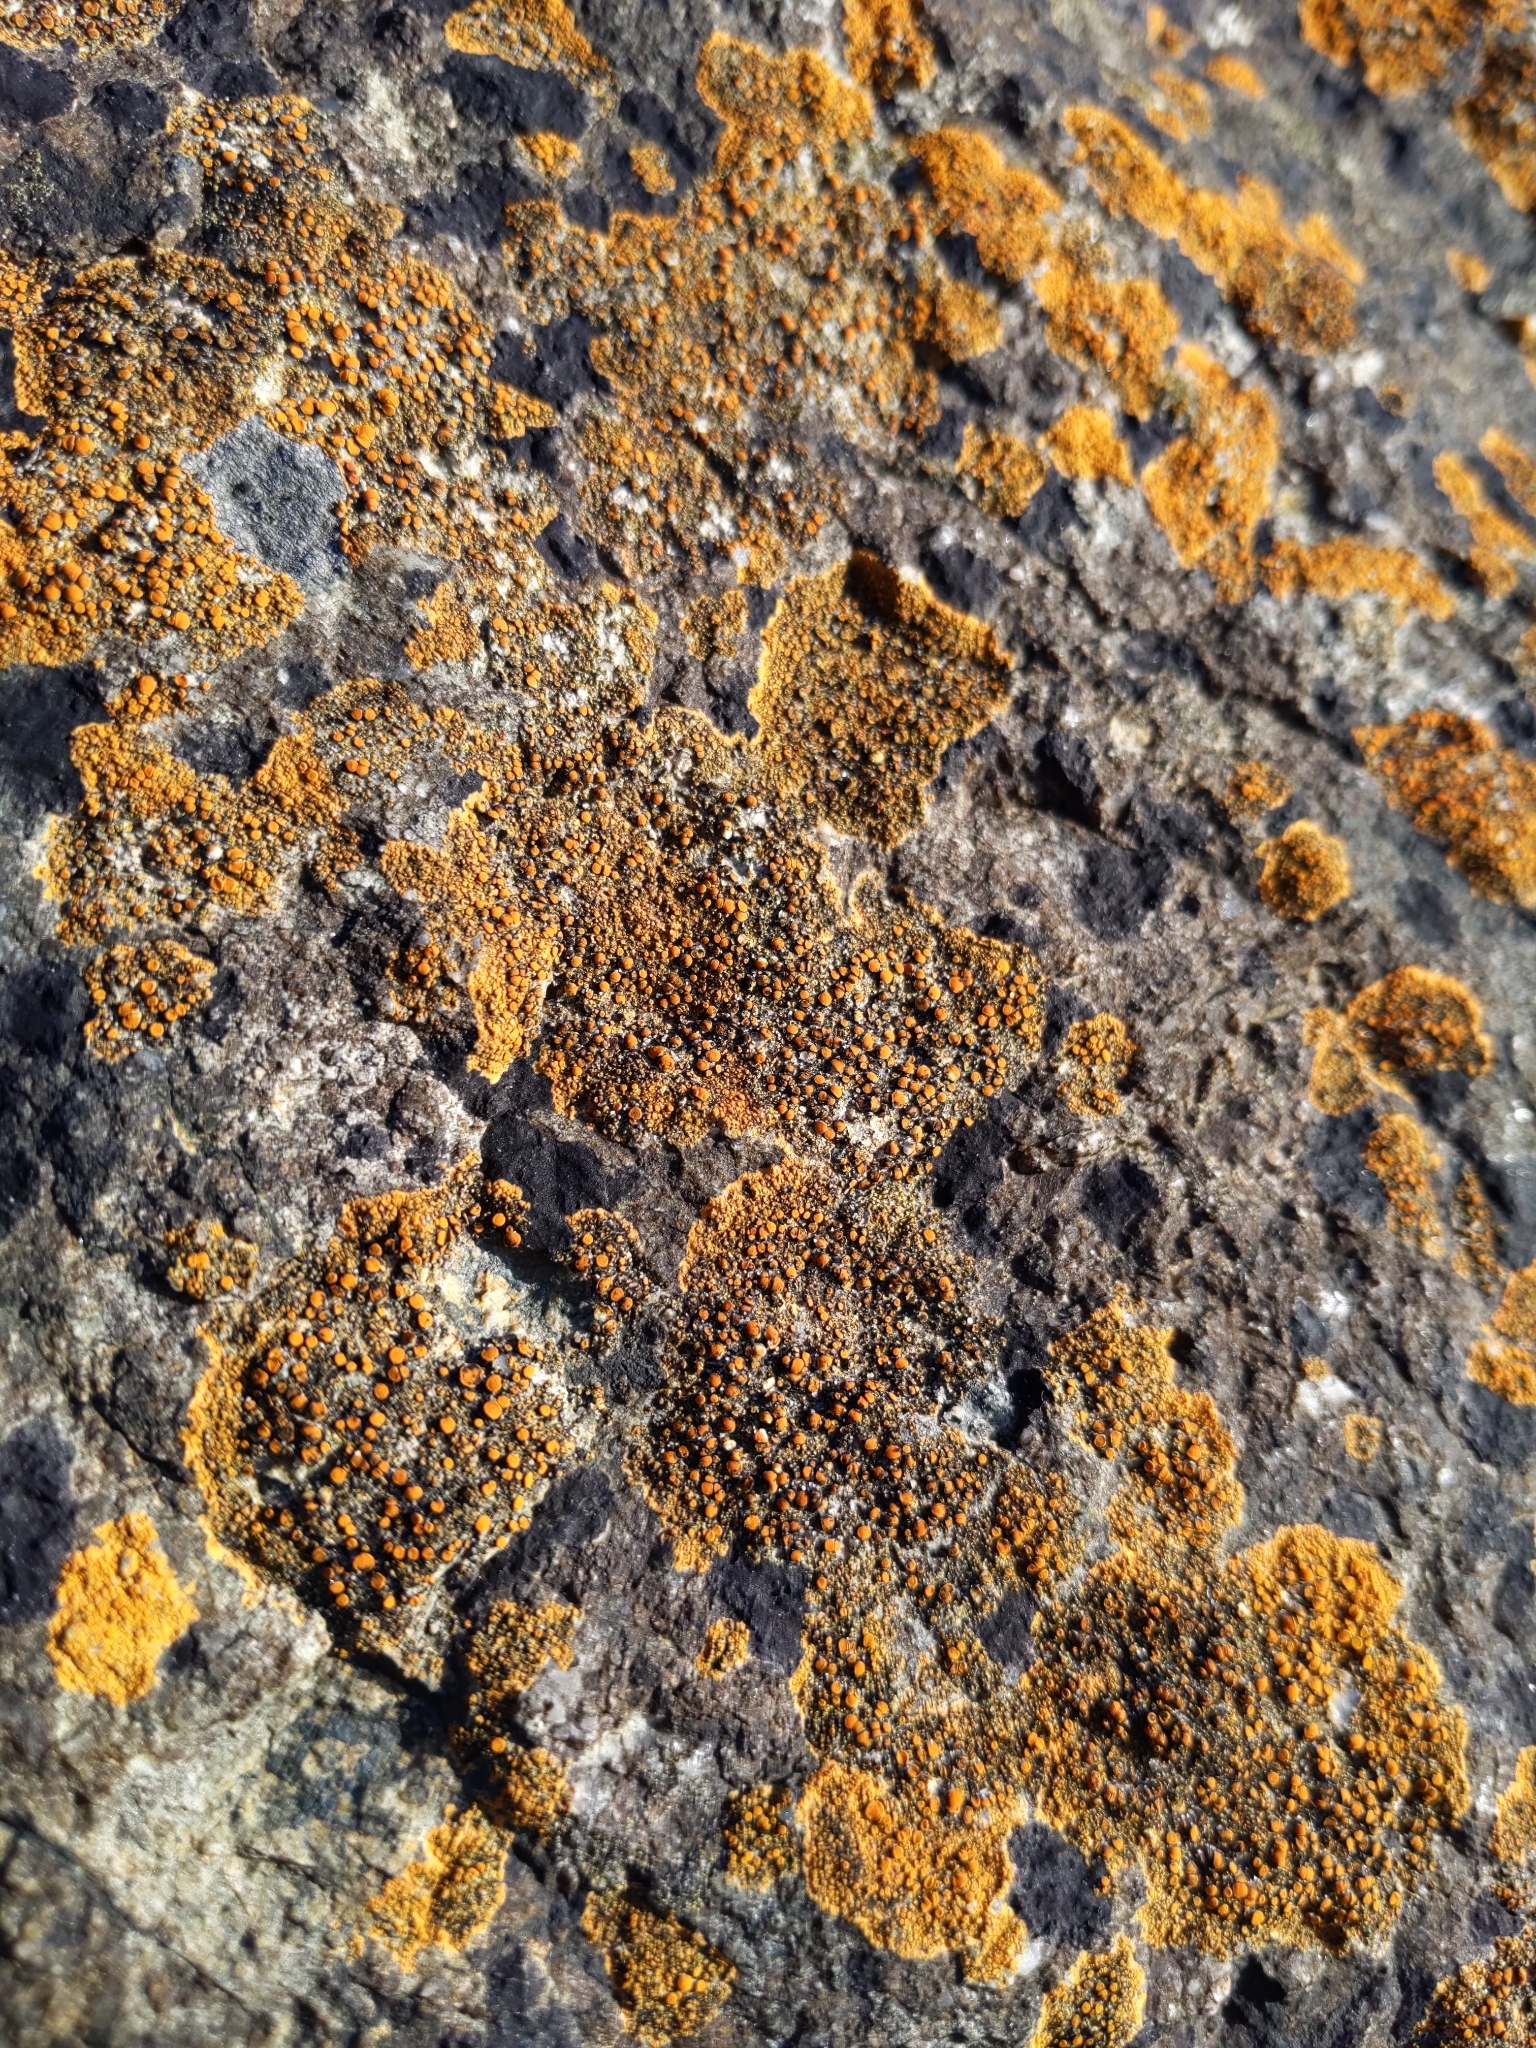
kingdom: Fungi
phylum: Ascomycota
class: Lecanoromycetes
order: Teloschistales
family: Teloschistaceae
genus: Flavoplaca
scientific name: Flavoplaca marina
